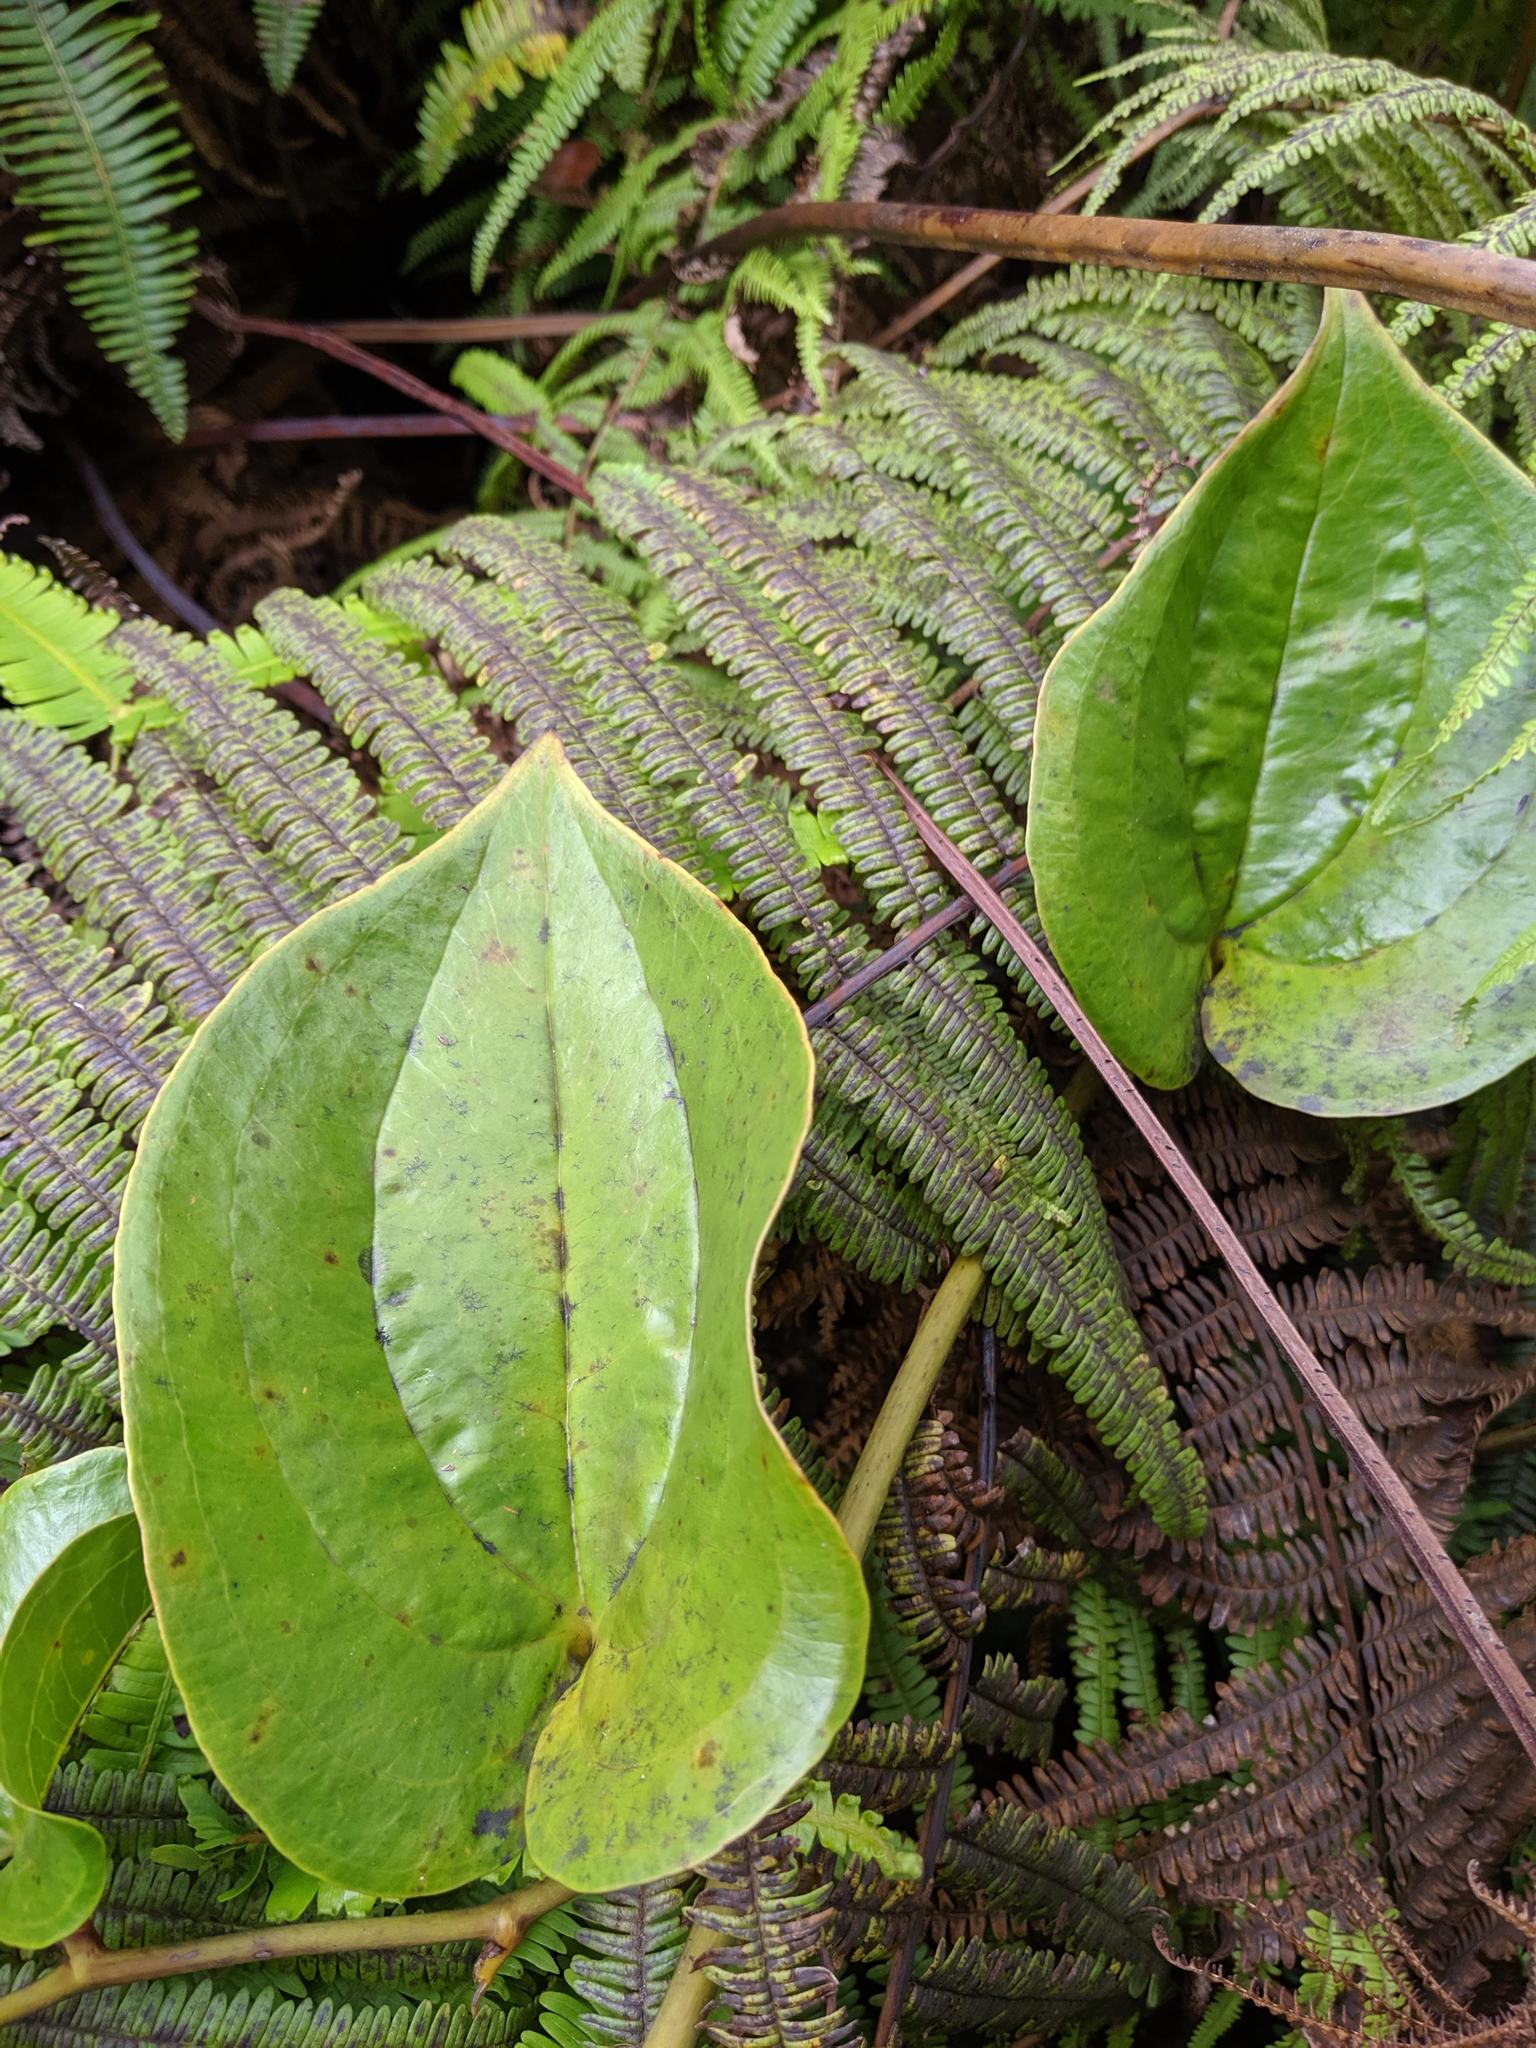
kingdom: Plantae
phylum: Tracheophyta
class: Liliopsida
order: Liliales
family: Smilacaceae
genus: Smilax
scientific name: Smilax melastomifolia
